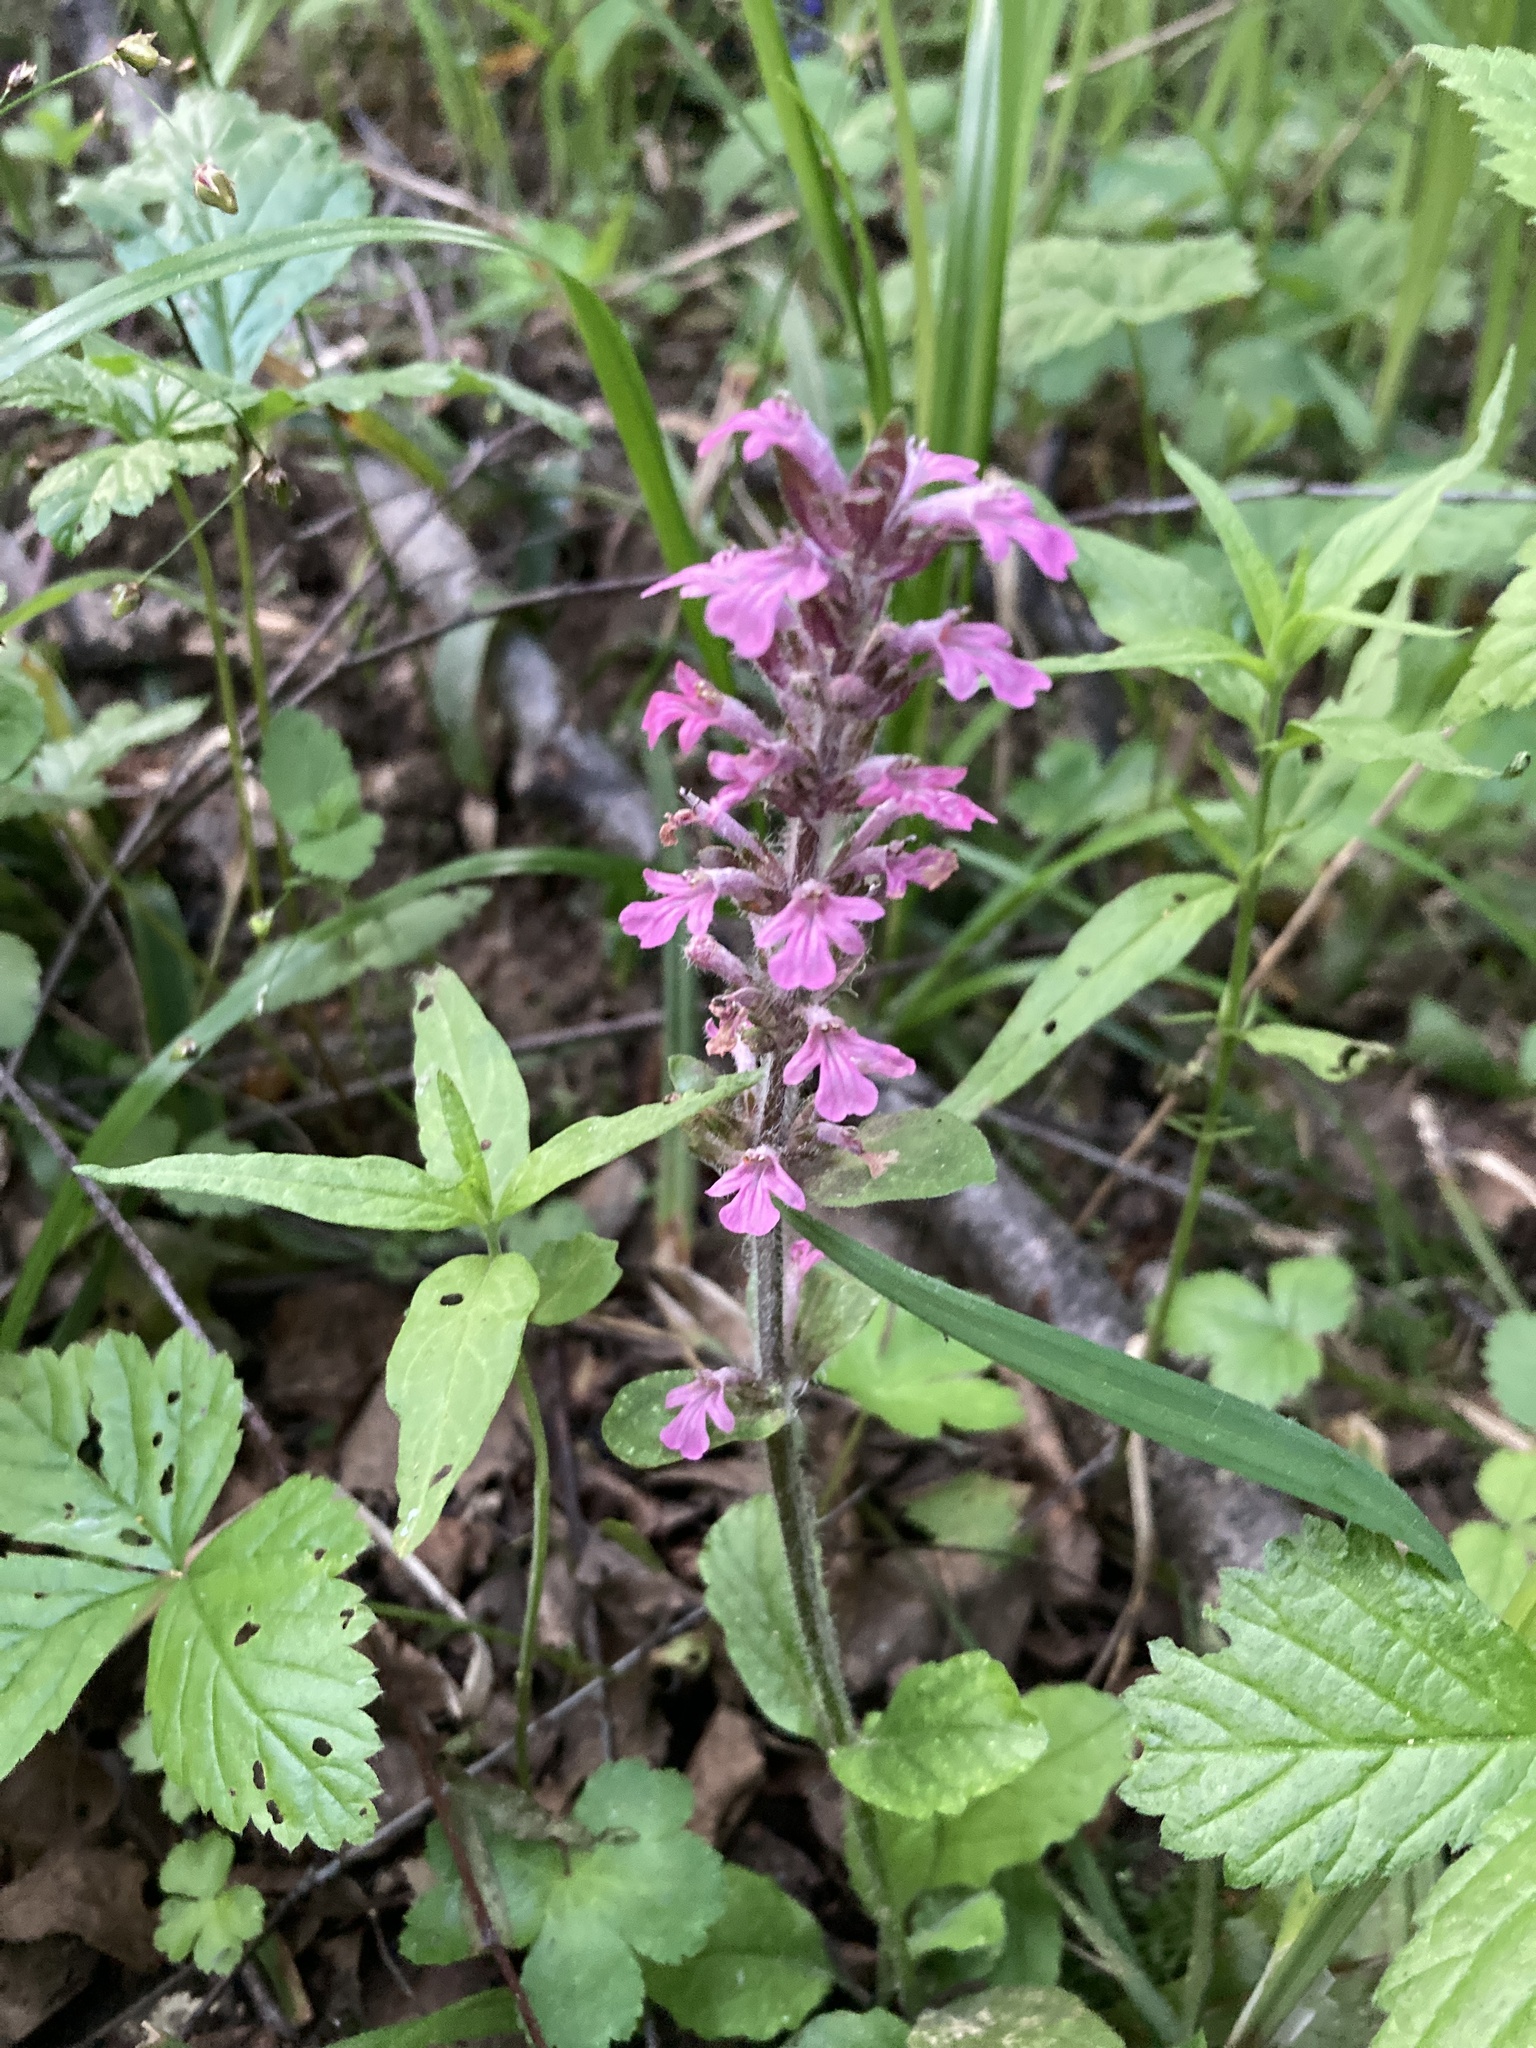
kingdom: Plantae
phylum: Tracheophyta
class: Magnoliopsida
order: Lamiales
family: Lamiaceae
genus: Ajuga
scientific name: Ajuga reptans
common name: Bugle
